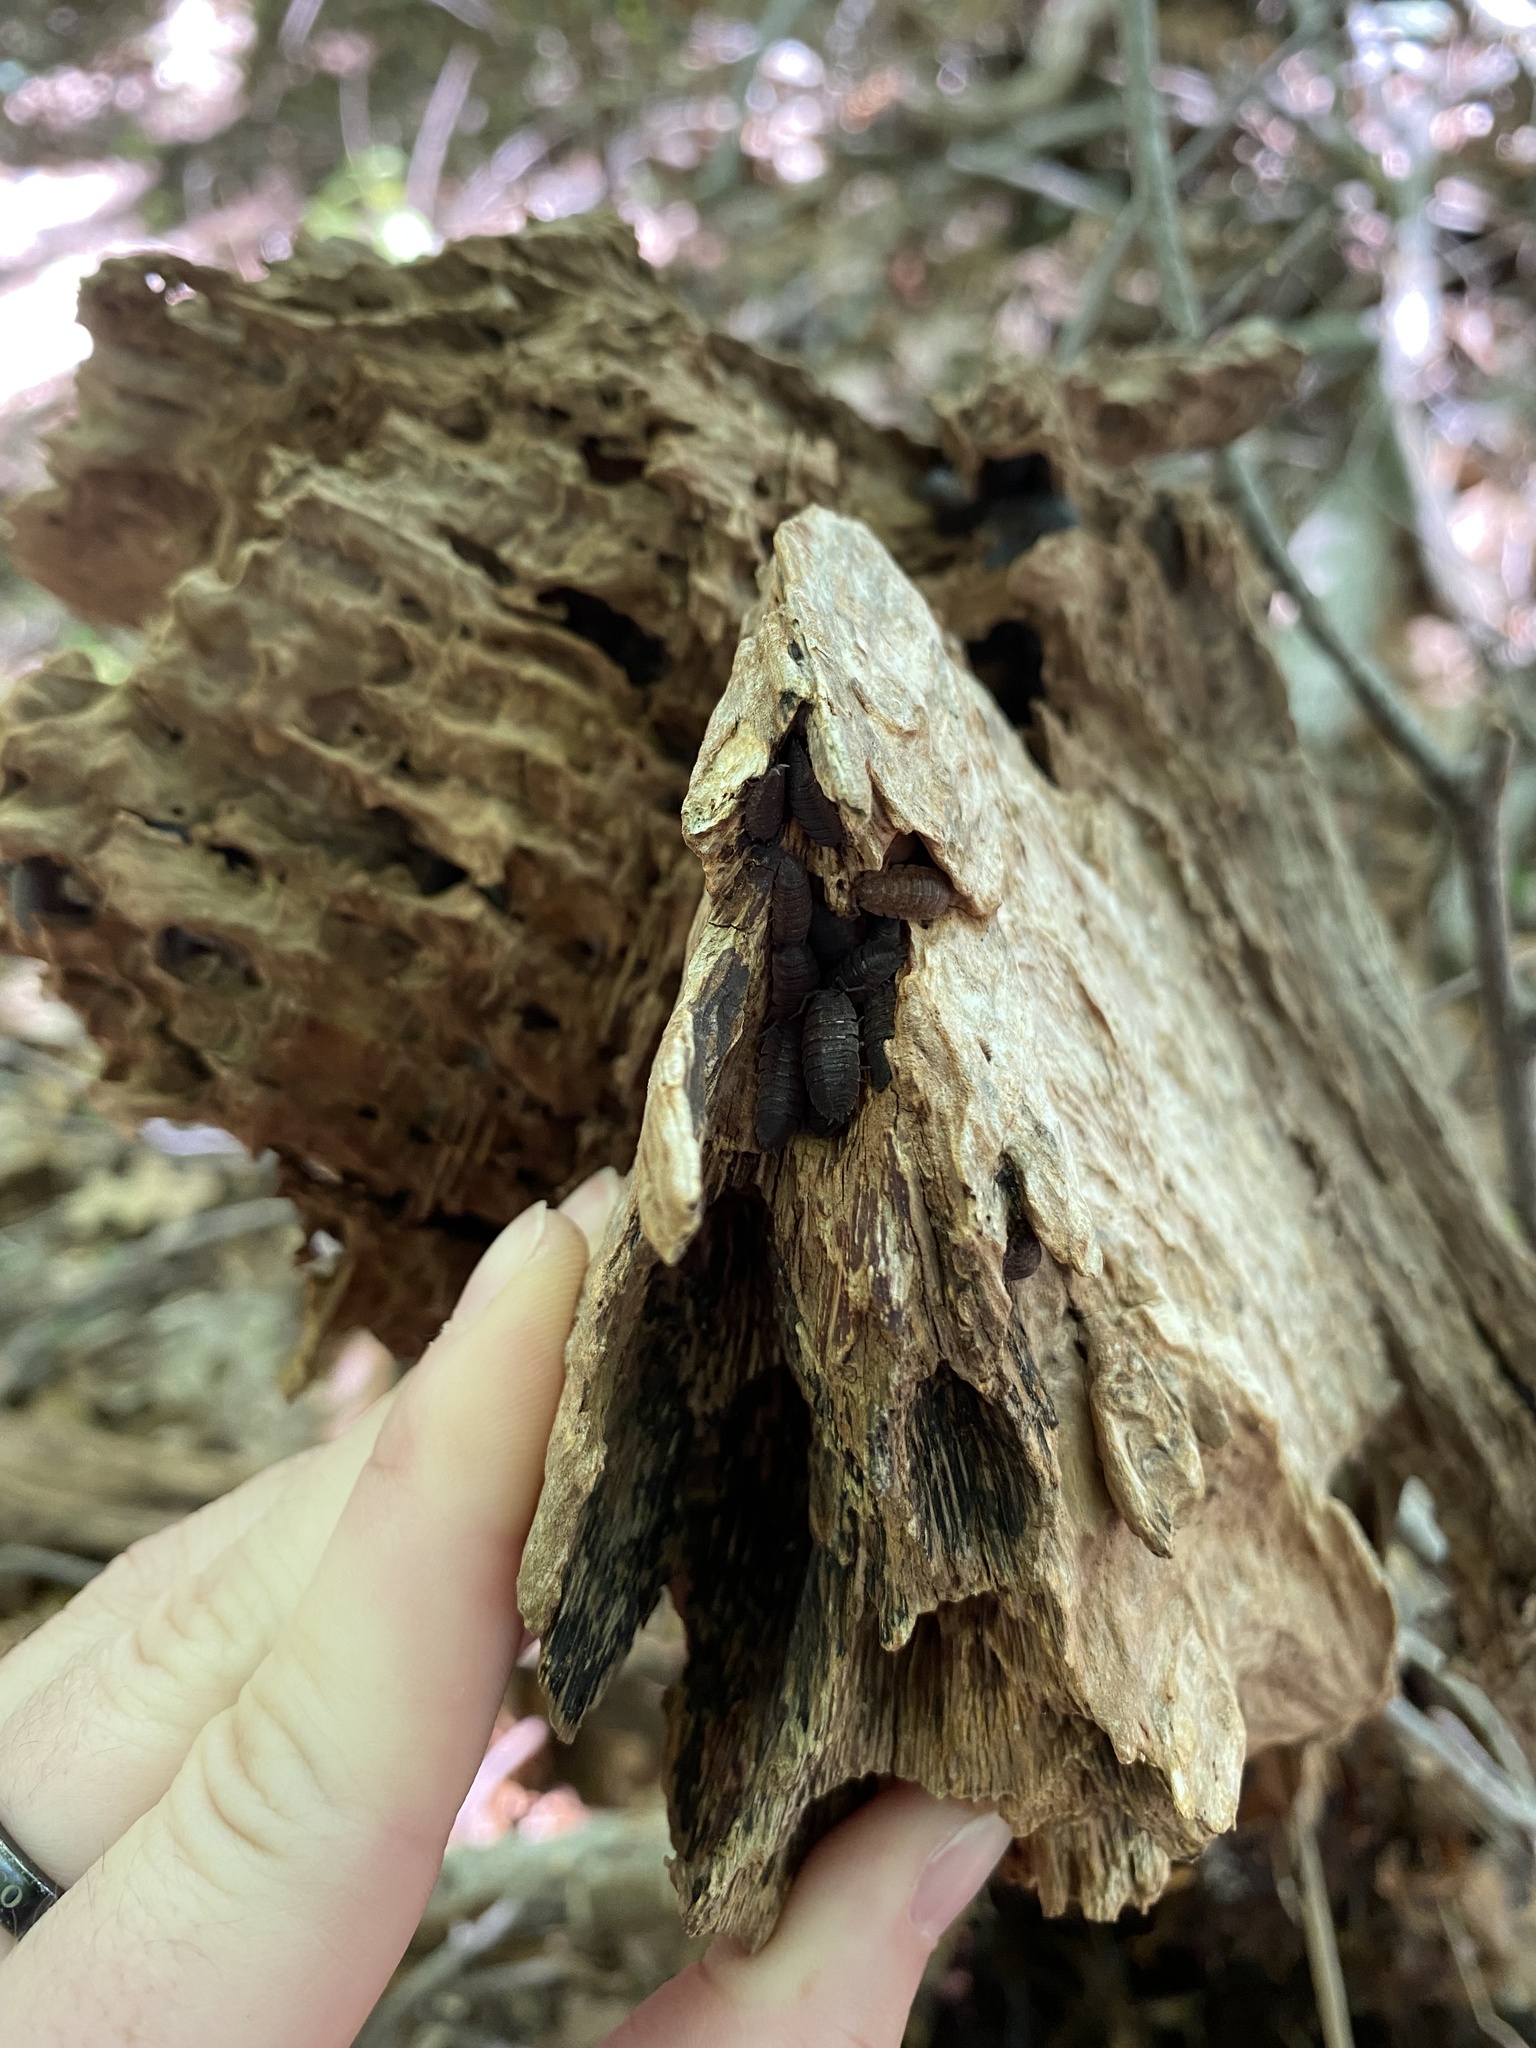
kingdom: Animalia
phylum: Arthropoda
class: Malacostraca
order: Isopoda
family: Porcellionidae
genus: Porcellio
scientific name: Porcellio scaber
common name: Common rough woodlouse
